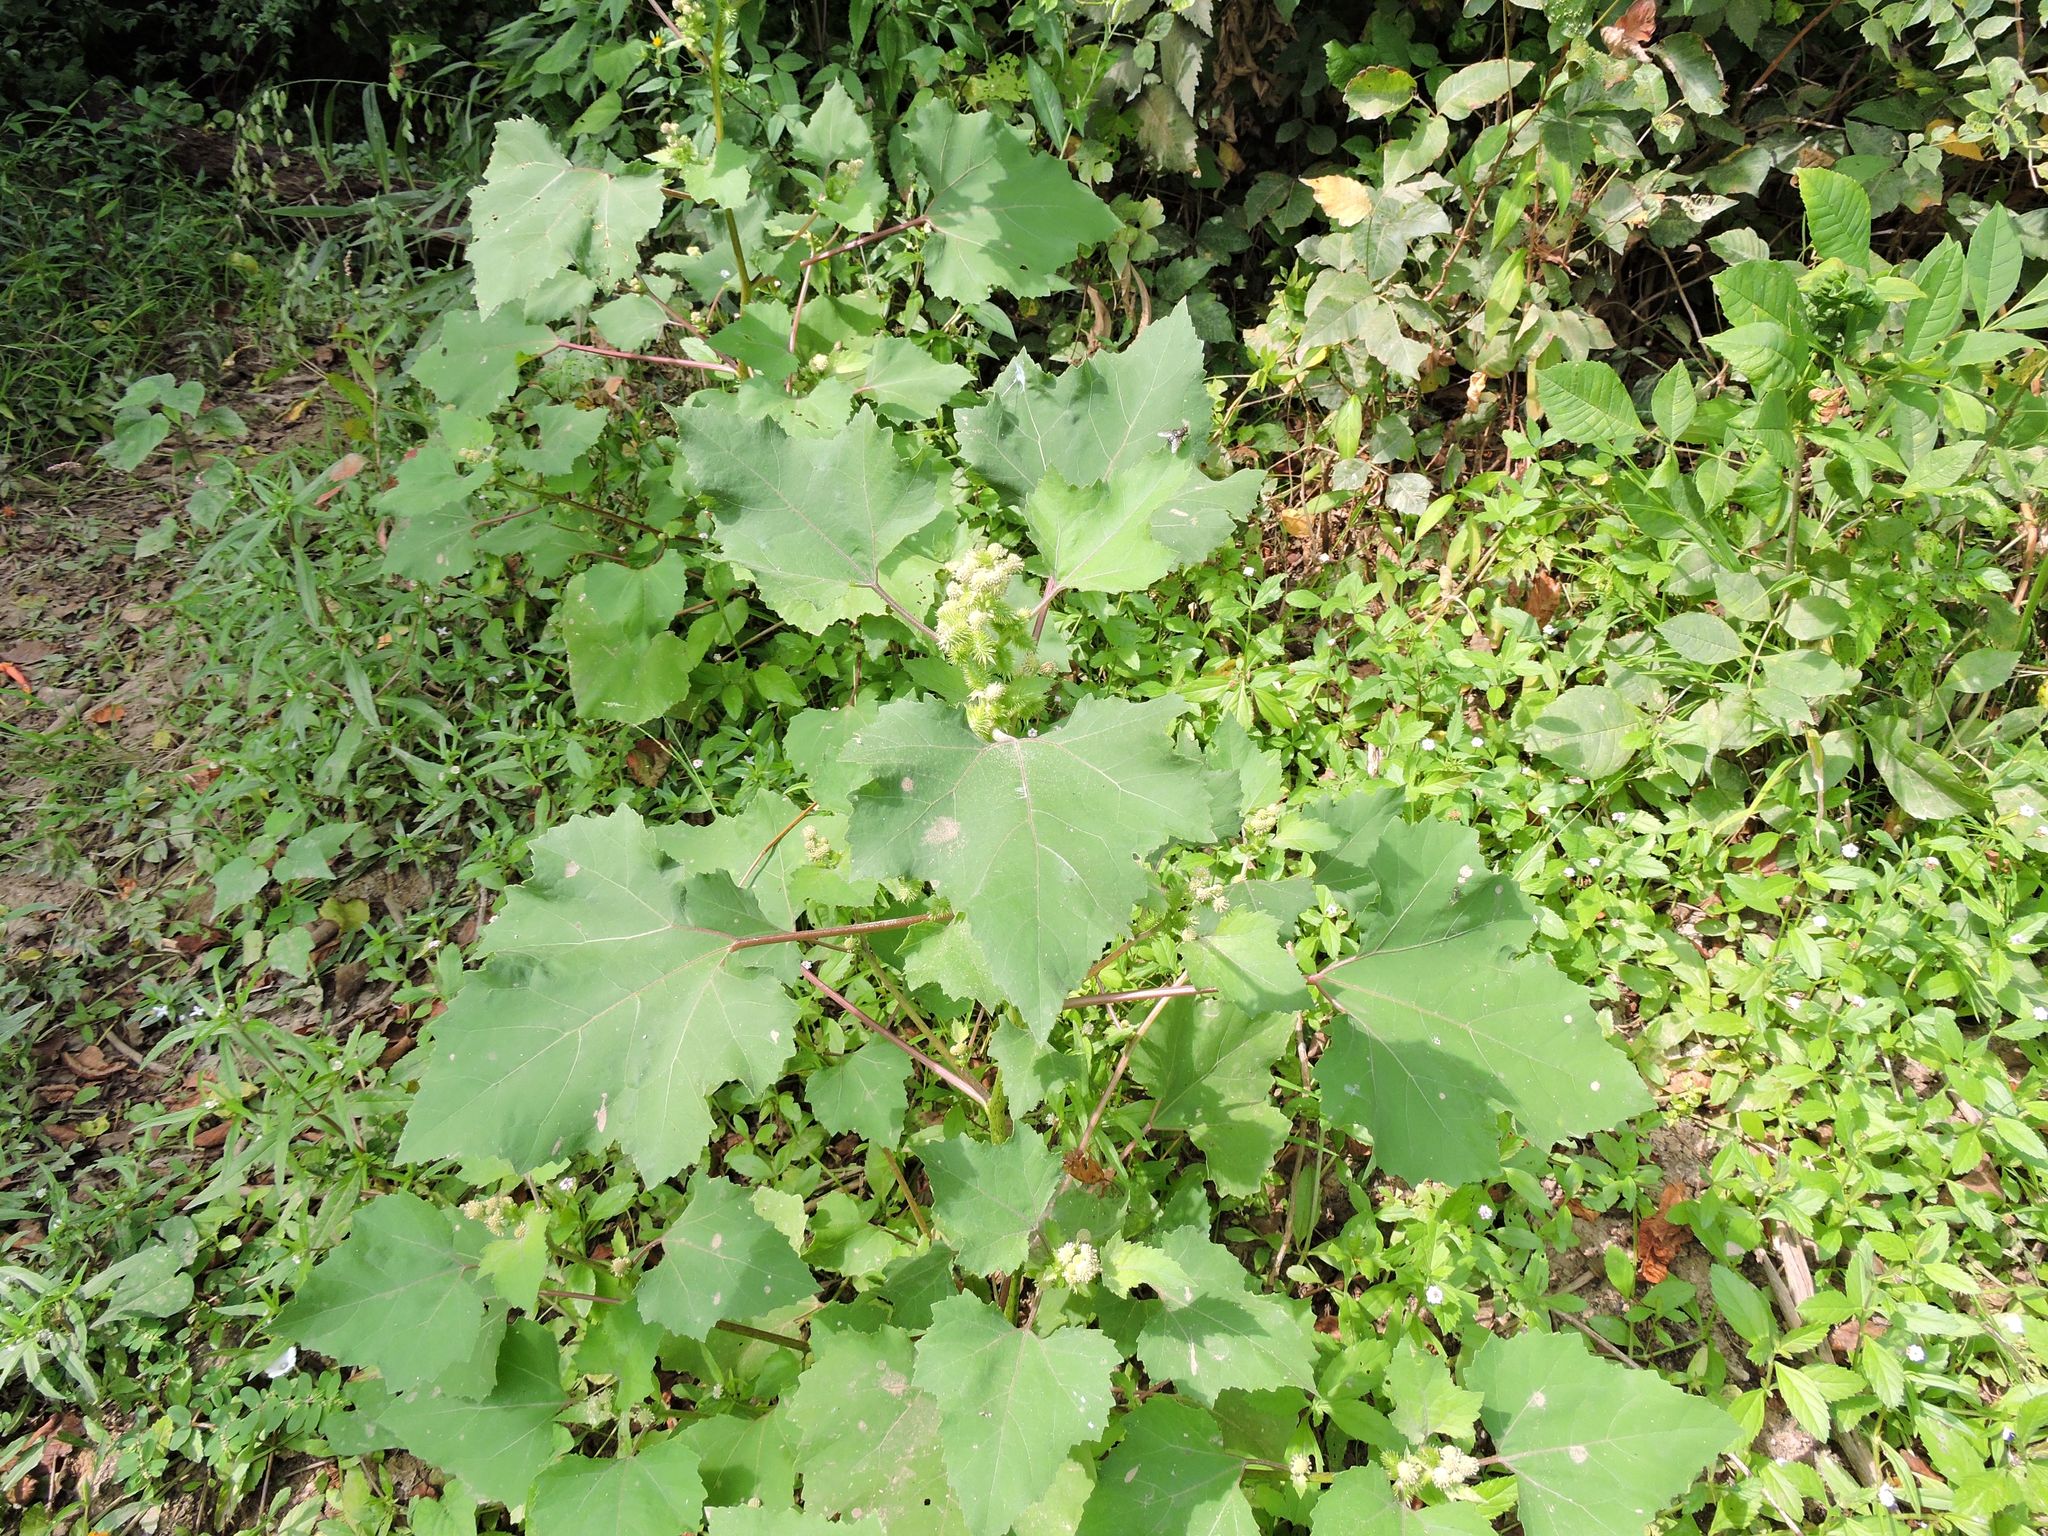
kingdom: Plantae
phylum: Tracheophyta
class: Magnoliopsida
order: Asterales
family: Asteraceae
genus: Xanthium
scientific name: Xanthium strumarium
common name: Rough cocklebur
